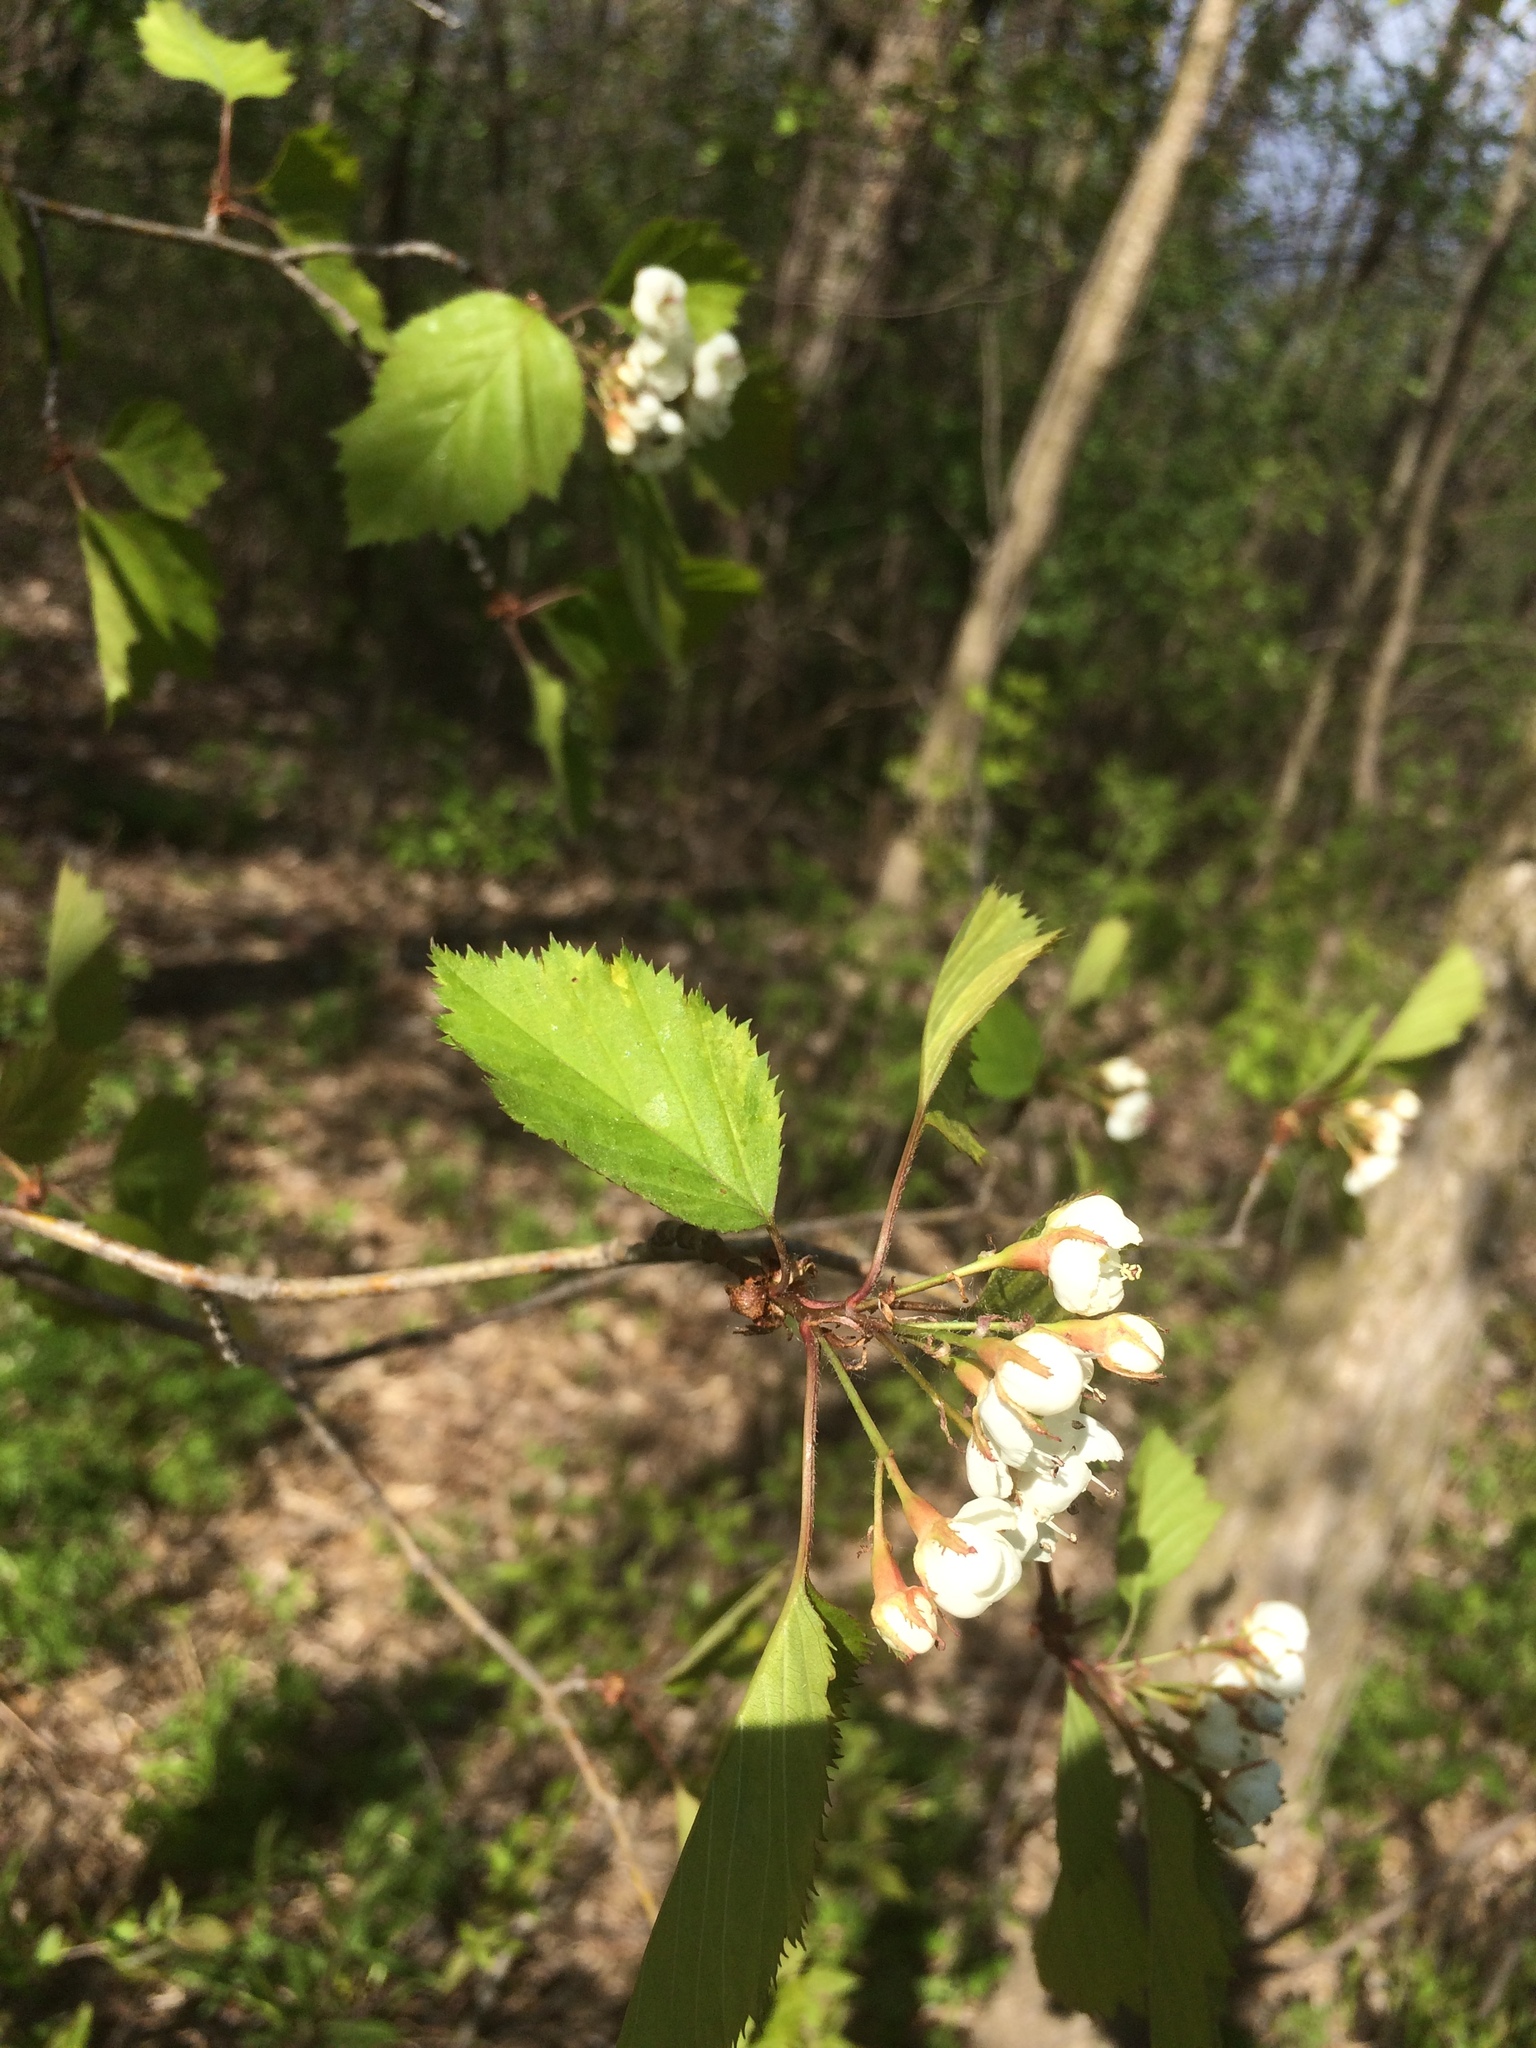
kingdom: Plantae
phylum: Tracheophyta
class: Magnoliopsida
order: Rosales
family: Rosaceae
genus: Crataegus
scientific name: Crataegus holmesiana
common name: Holmes' hawthorn
